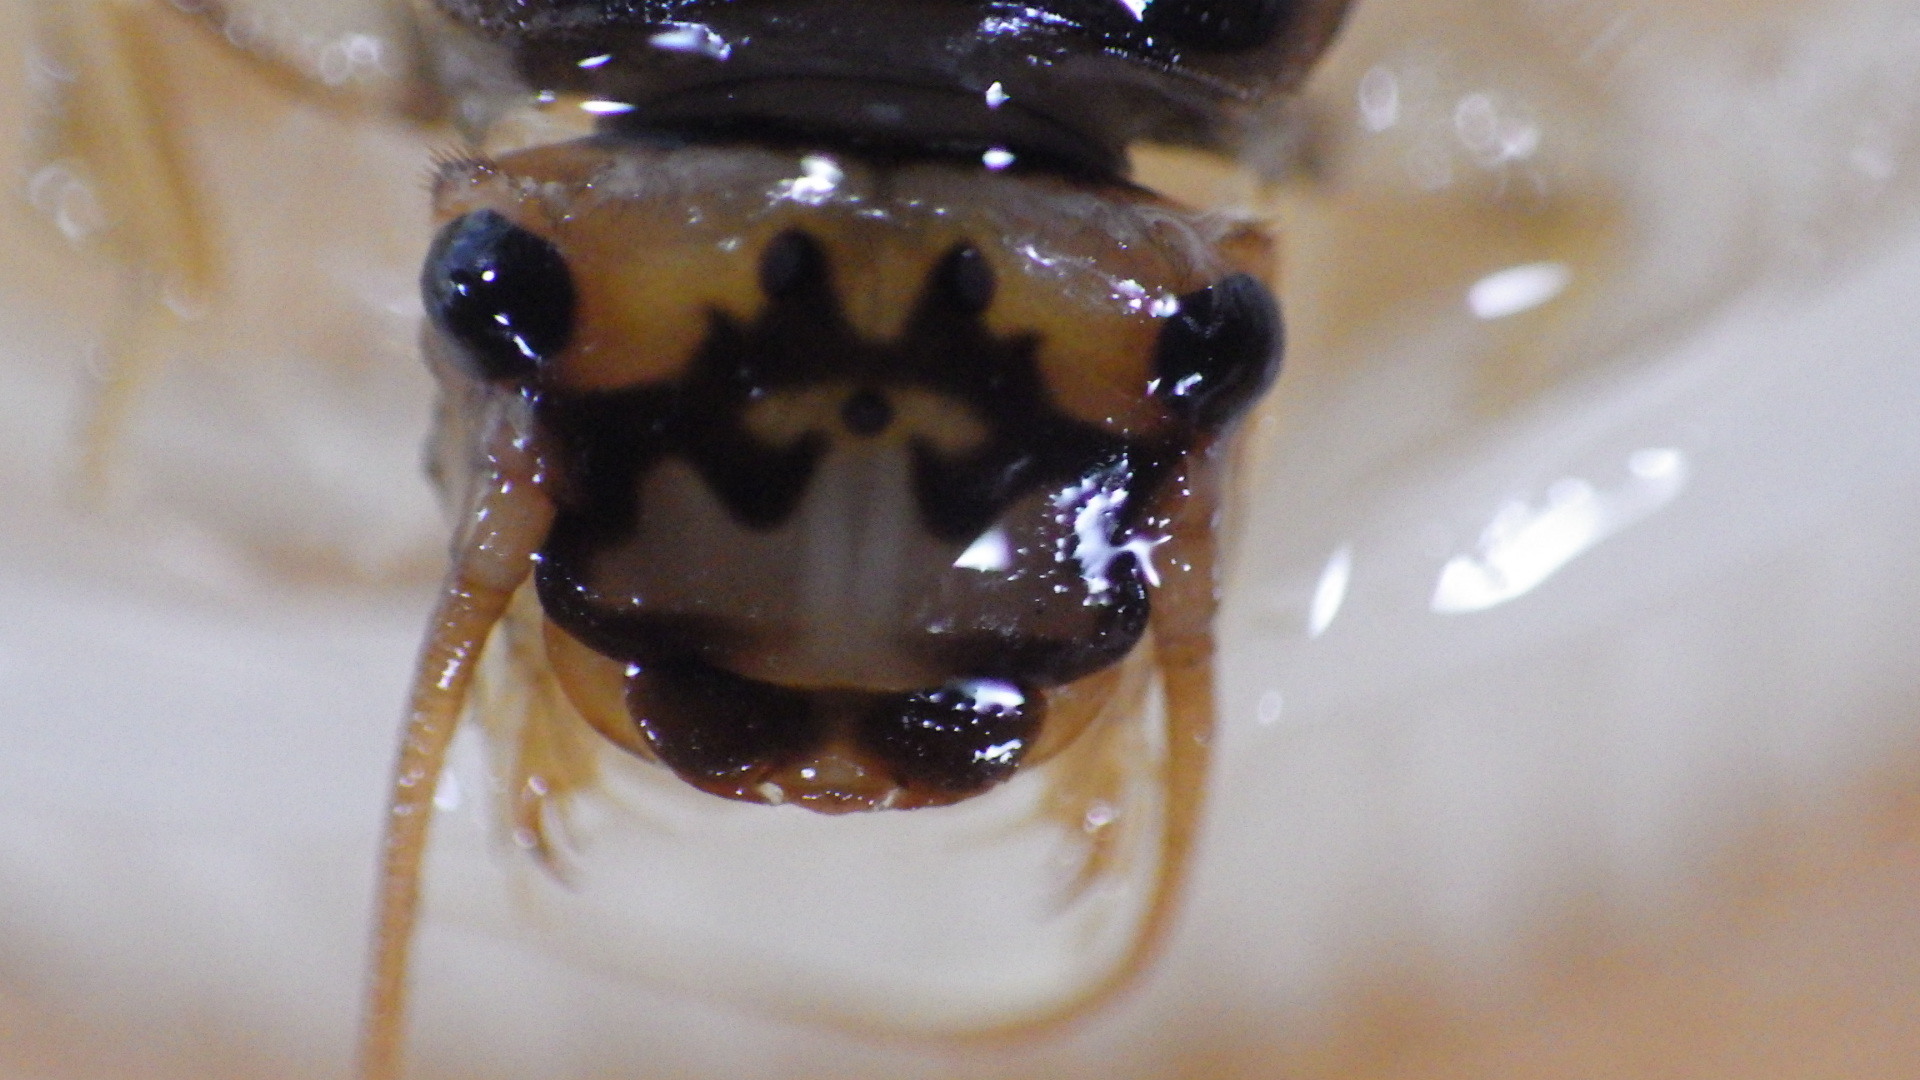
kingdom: Animalia
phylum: Arthropoda
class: Insecta
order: Plecoptera
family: Perlidae
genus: Eccoptura
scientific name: Eccoptura xanthenes
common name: Yellow stone
